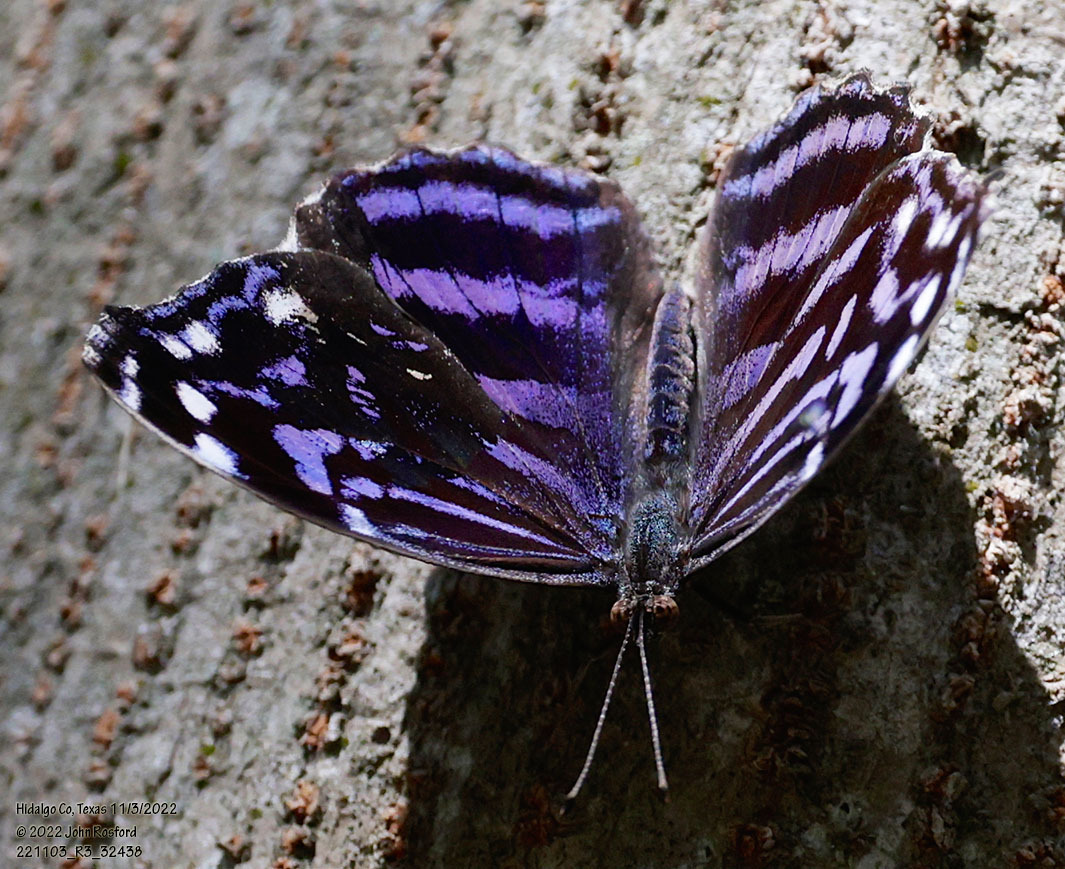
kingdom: Animalia
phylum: Arthropoda
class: Insecta
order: Lepidoptera
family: Nymphalidae
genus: Myscelia
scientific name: Myscelia ethusa
